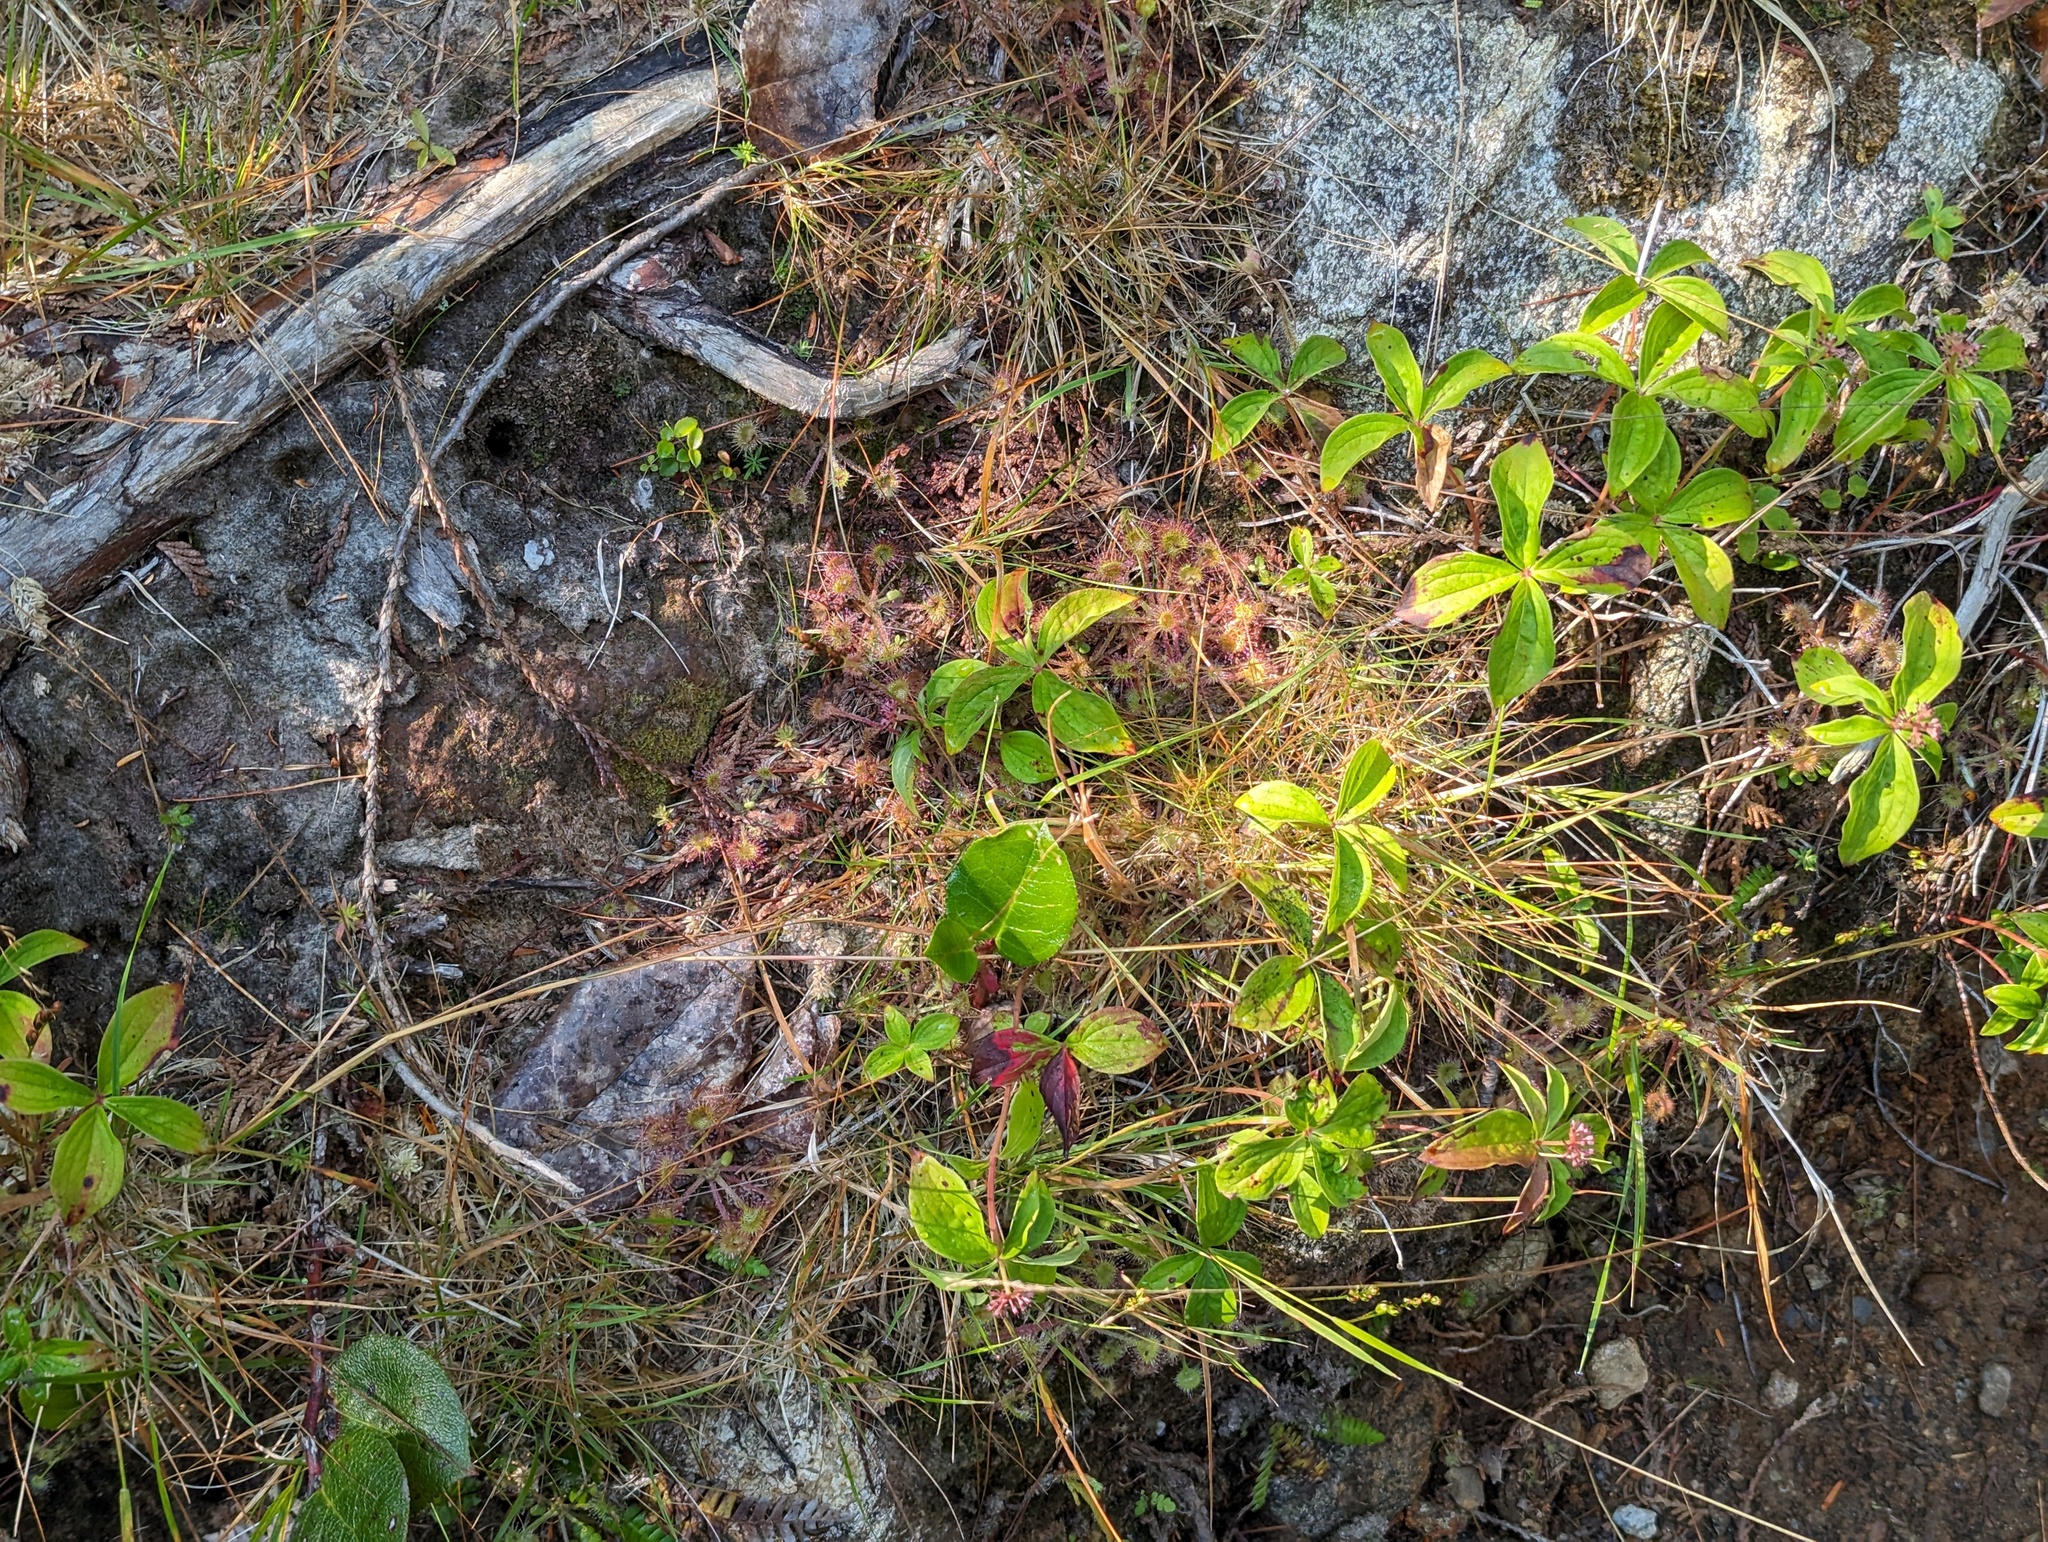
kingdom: Plantae
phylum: Tracheophyta
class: Magnoliopsida
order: Caryophyllales
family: Droseraceae
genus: Drosera
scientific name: Drosera rotundifolia
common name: Round-leaved sundew
